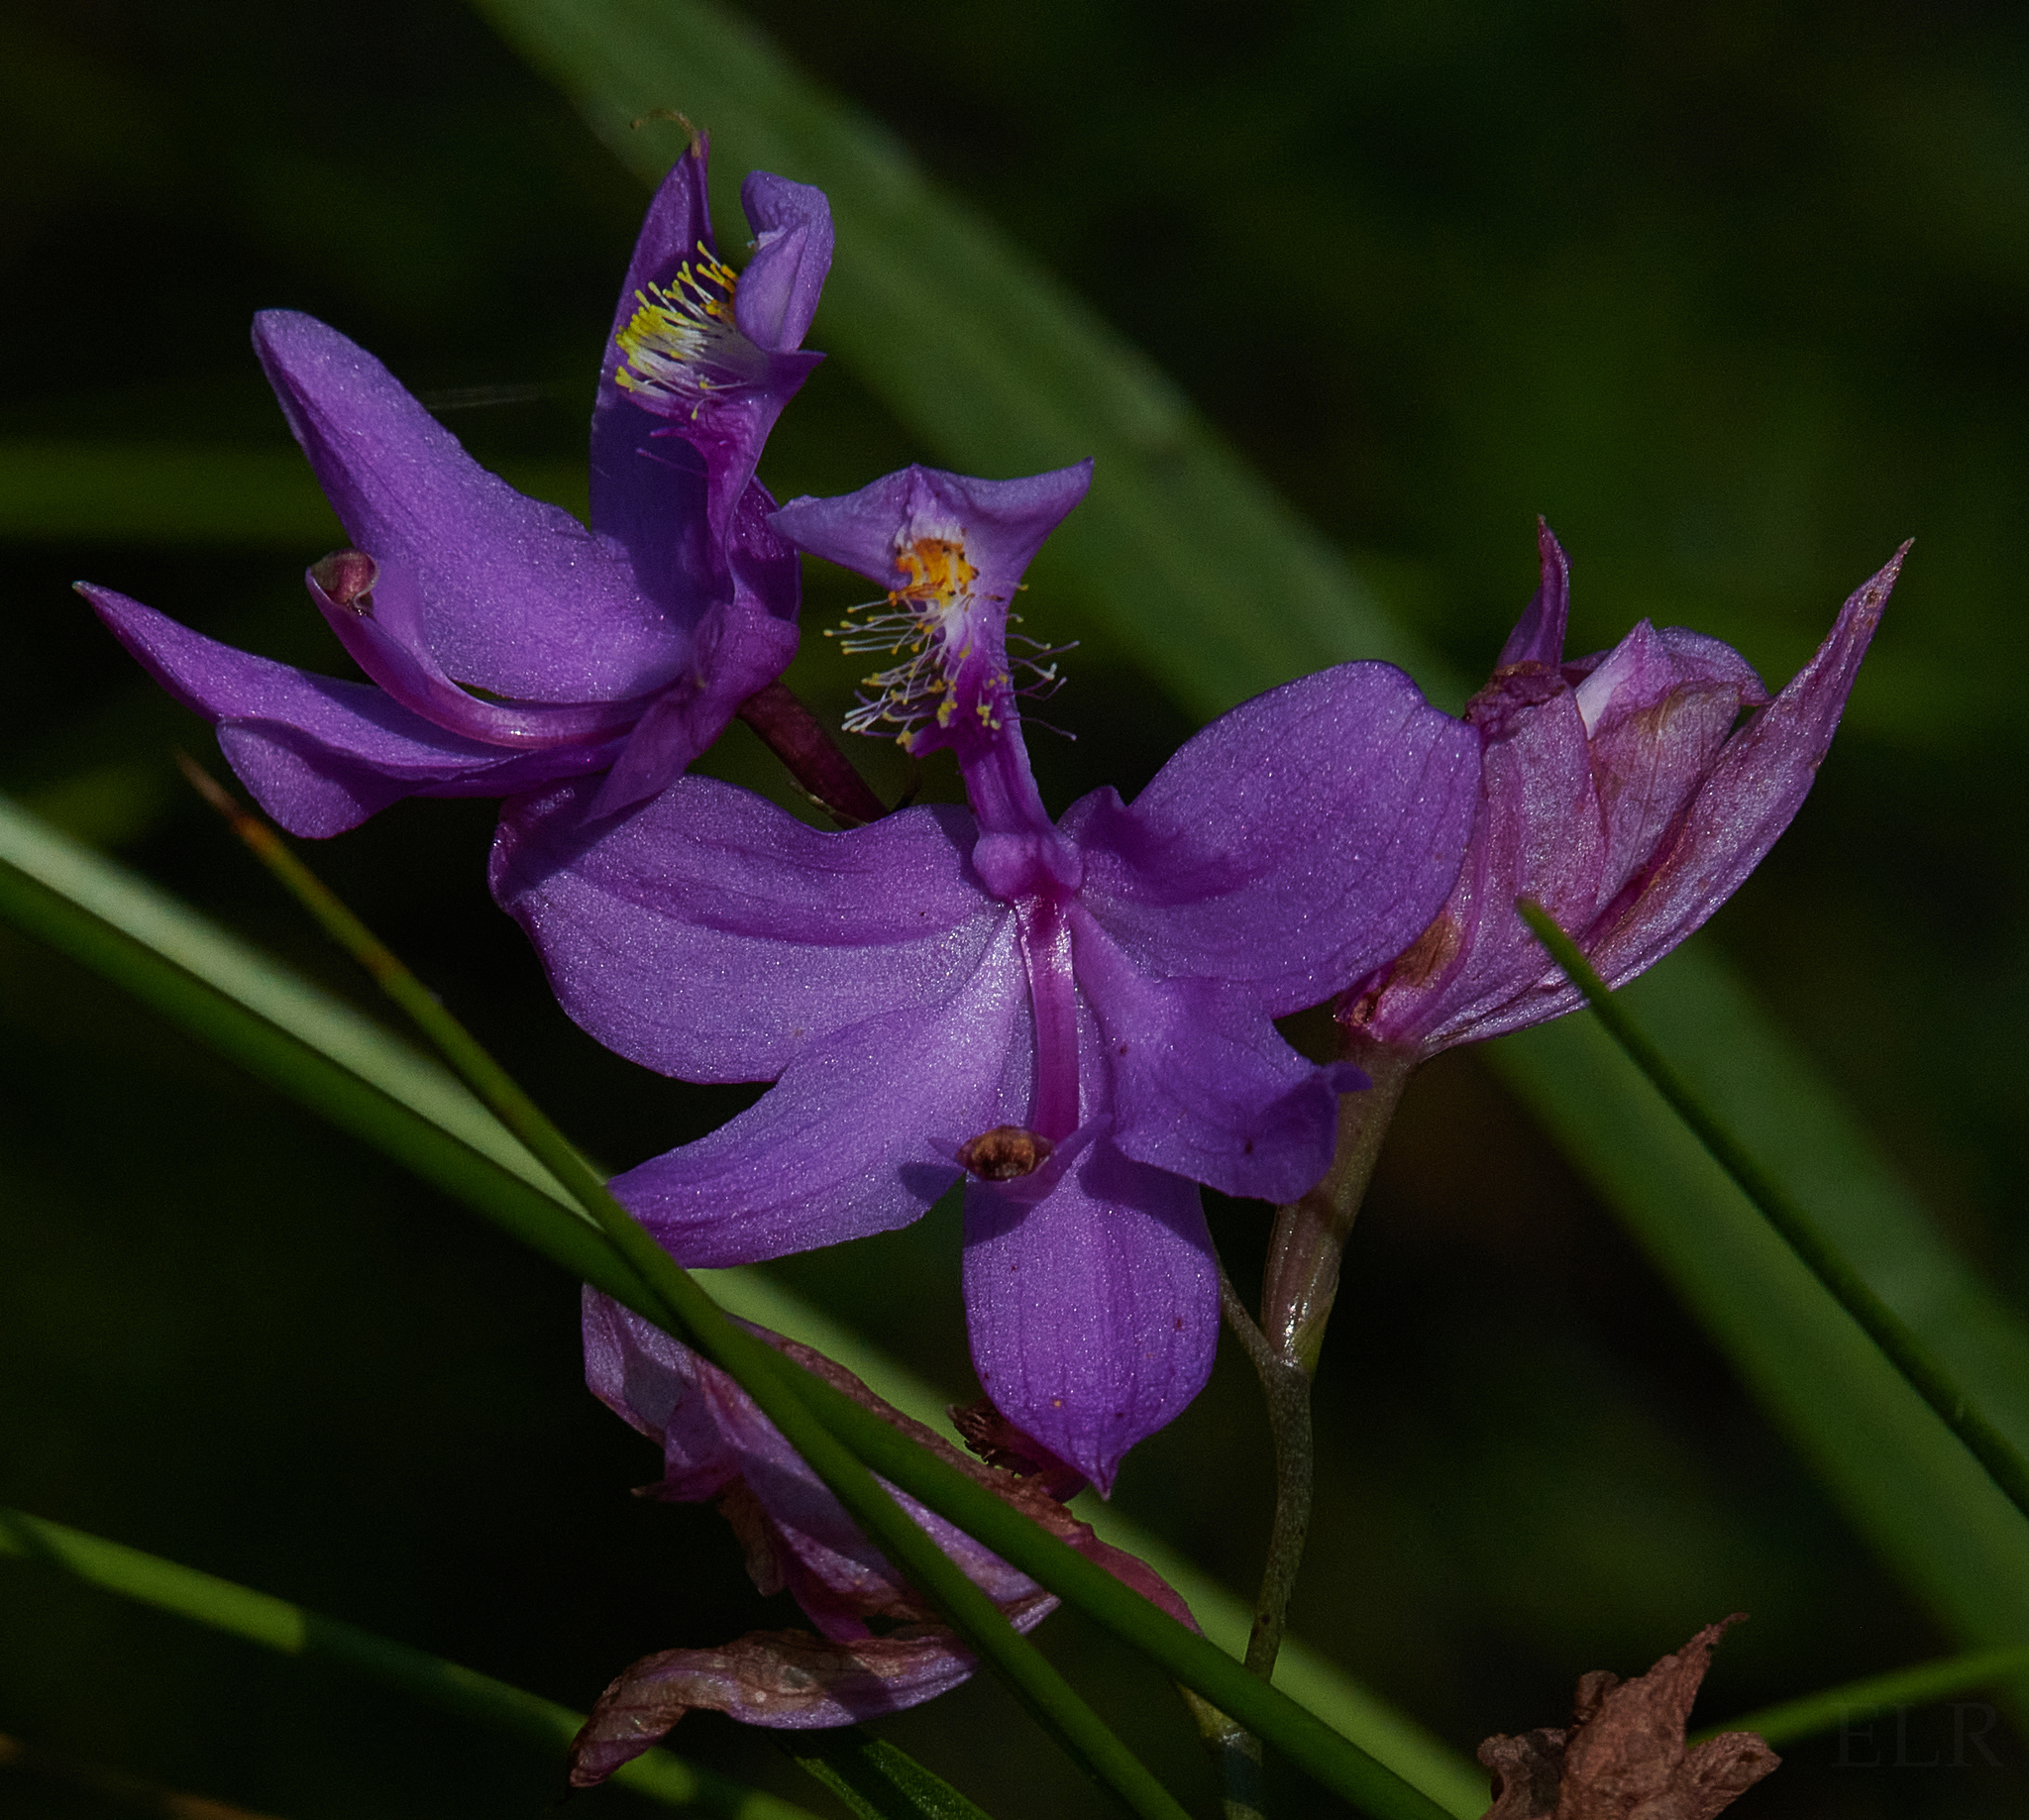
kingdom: Plantae
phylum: Tracheophyta
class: Liliopsida
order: Asparagales
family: Orchidaceae
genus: Calopogon
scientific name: Calopogon tuberosus
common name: Grass-pink
